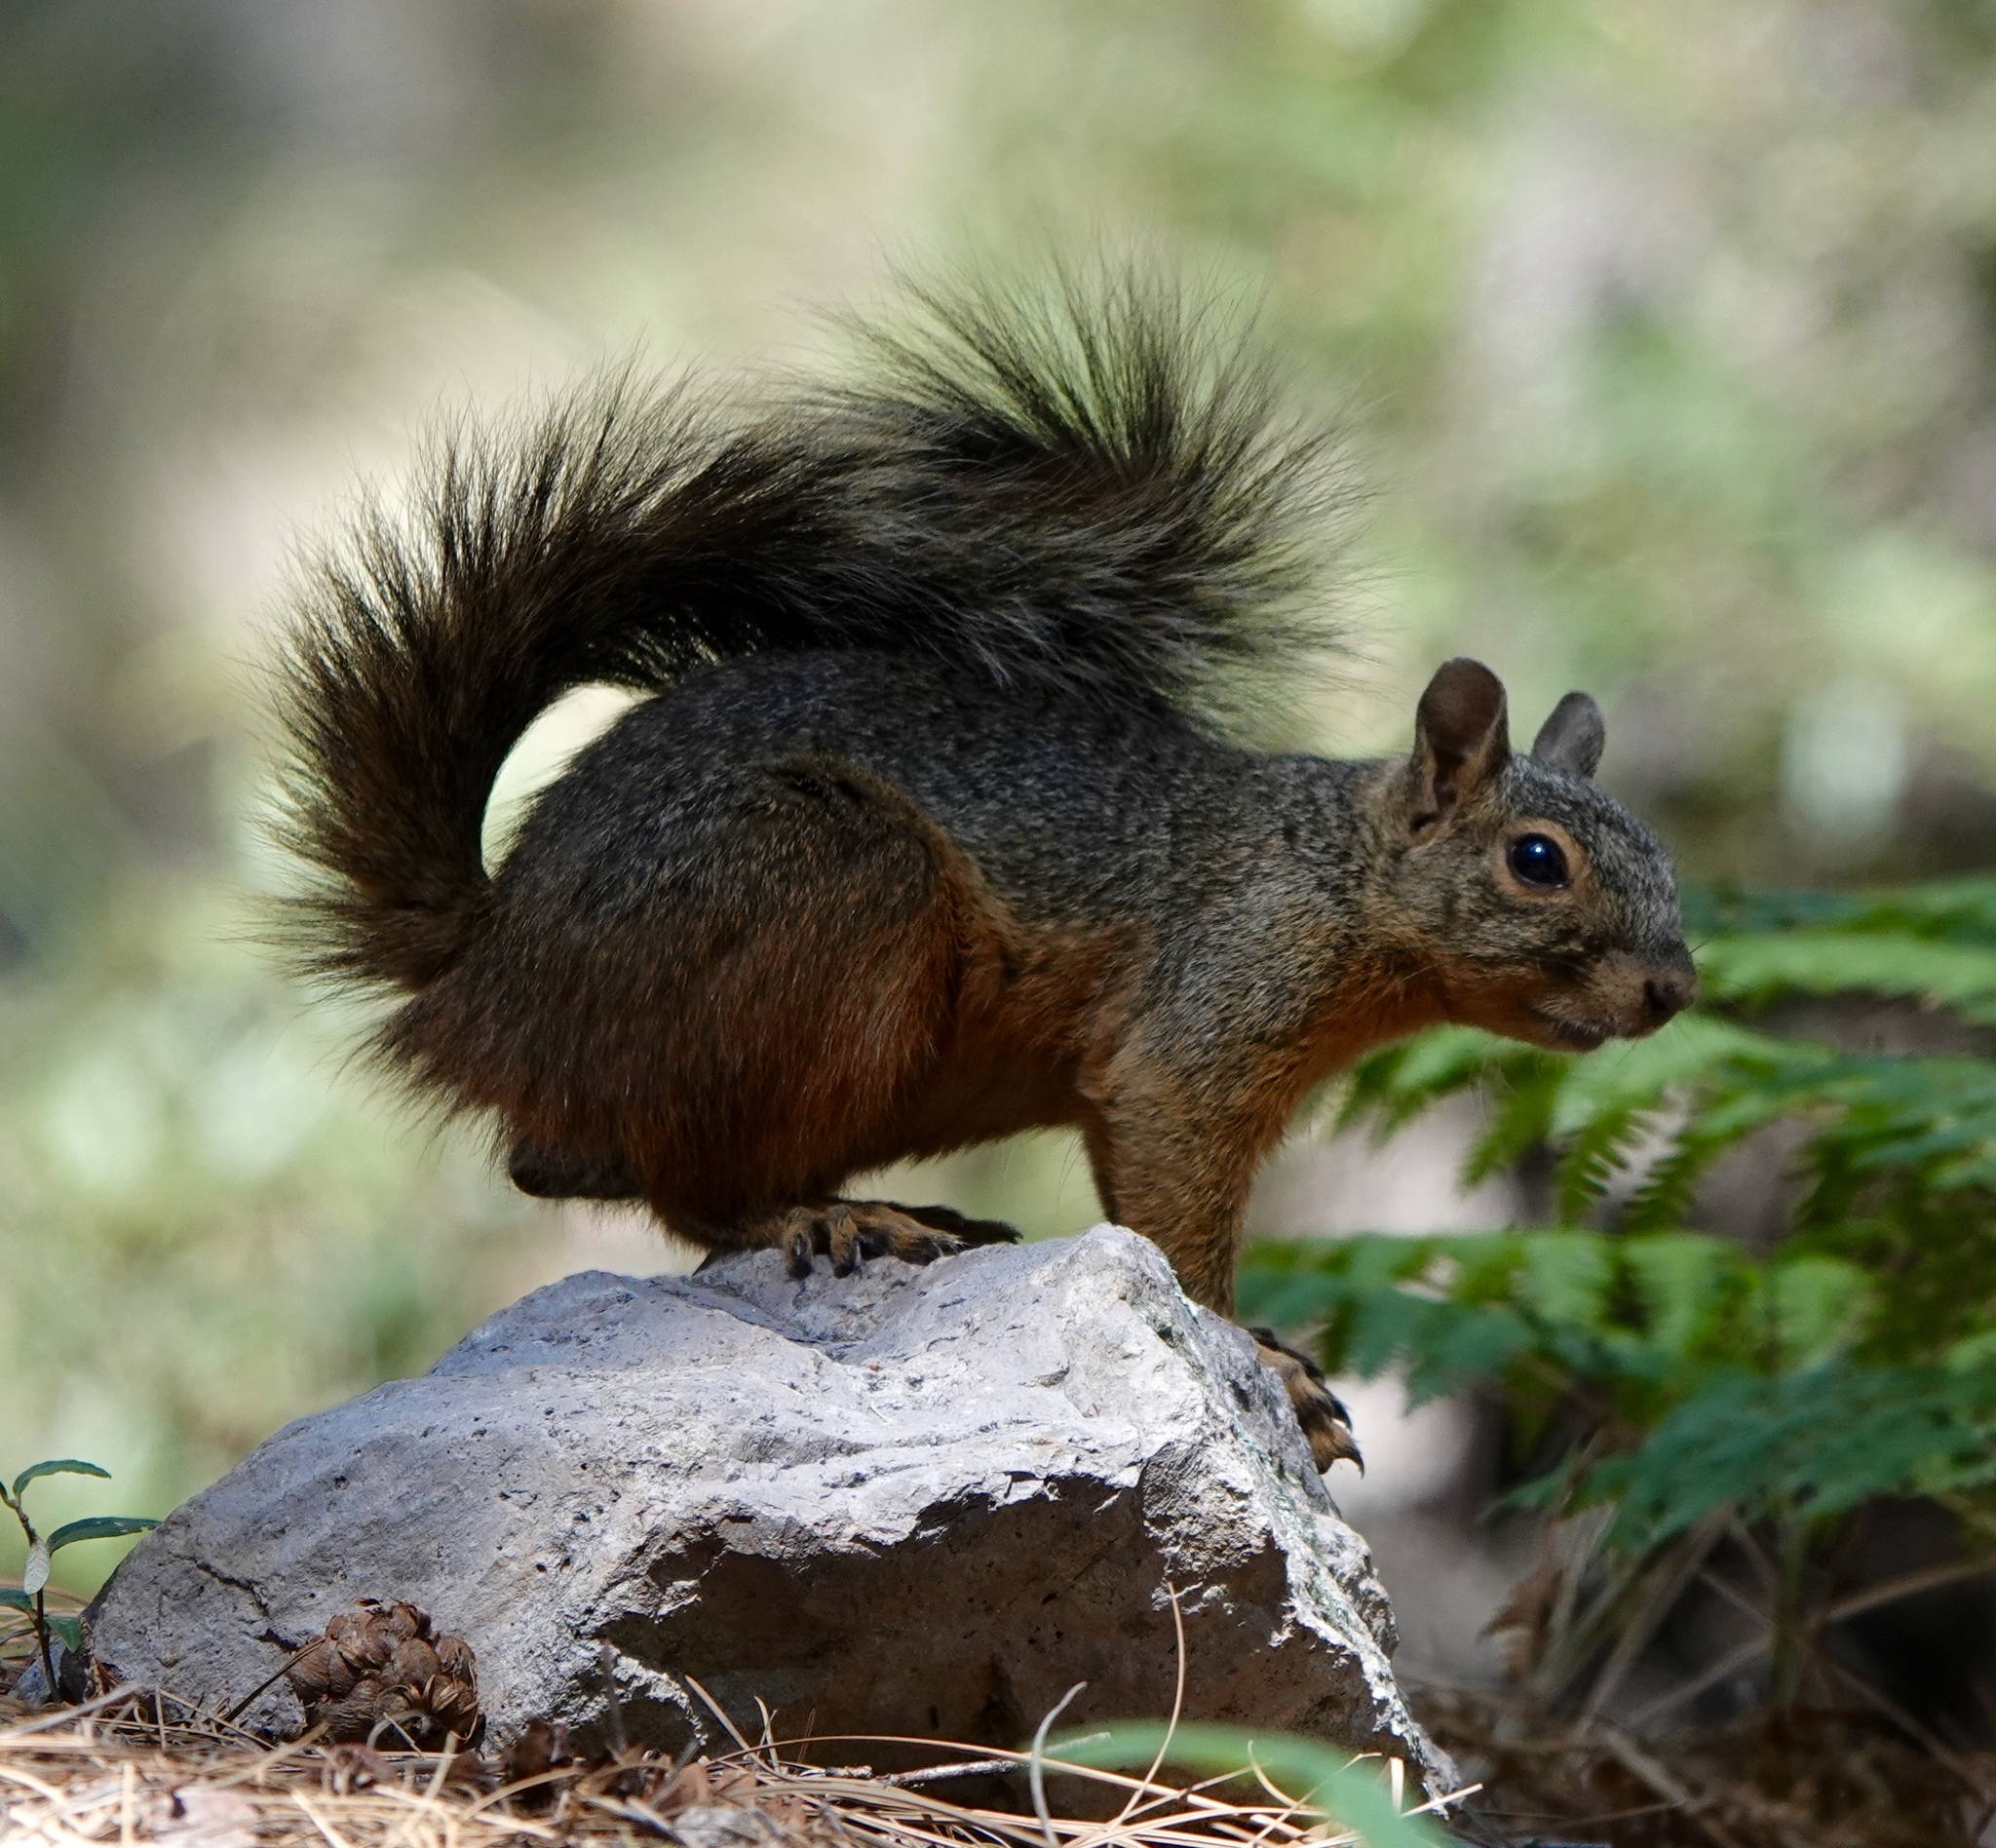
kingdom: Animalia
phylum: Chordata
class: Mammalia
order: Rodentia
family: Sciuridae
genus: Sciurus
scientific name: Sciurus nayaritensis
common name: Mexican fox squirrel
